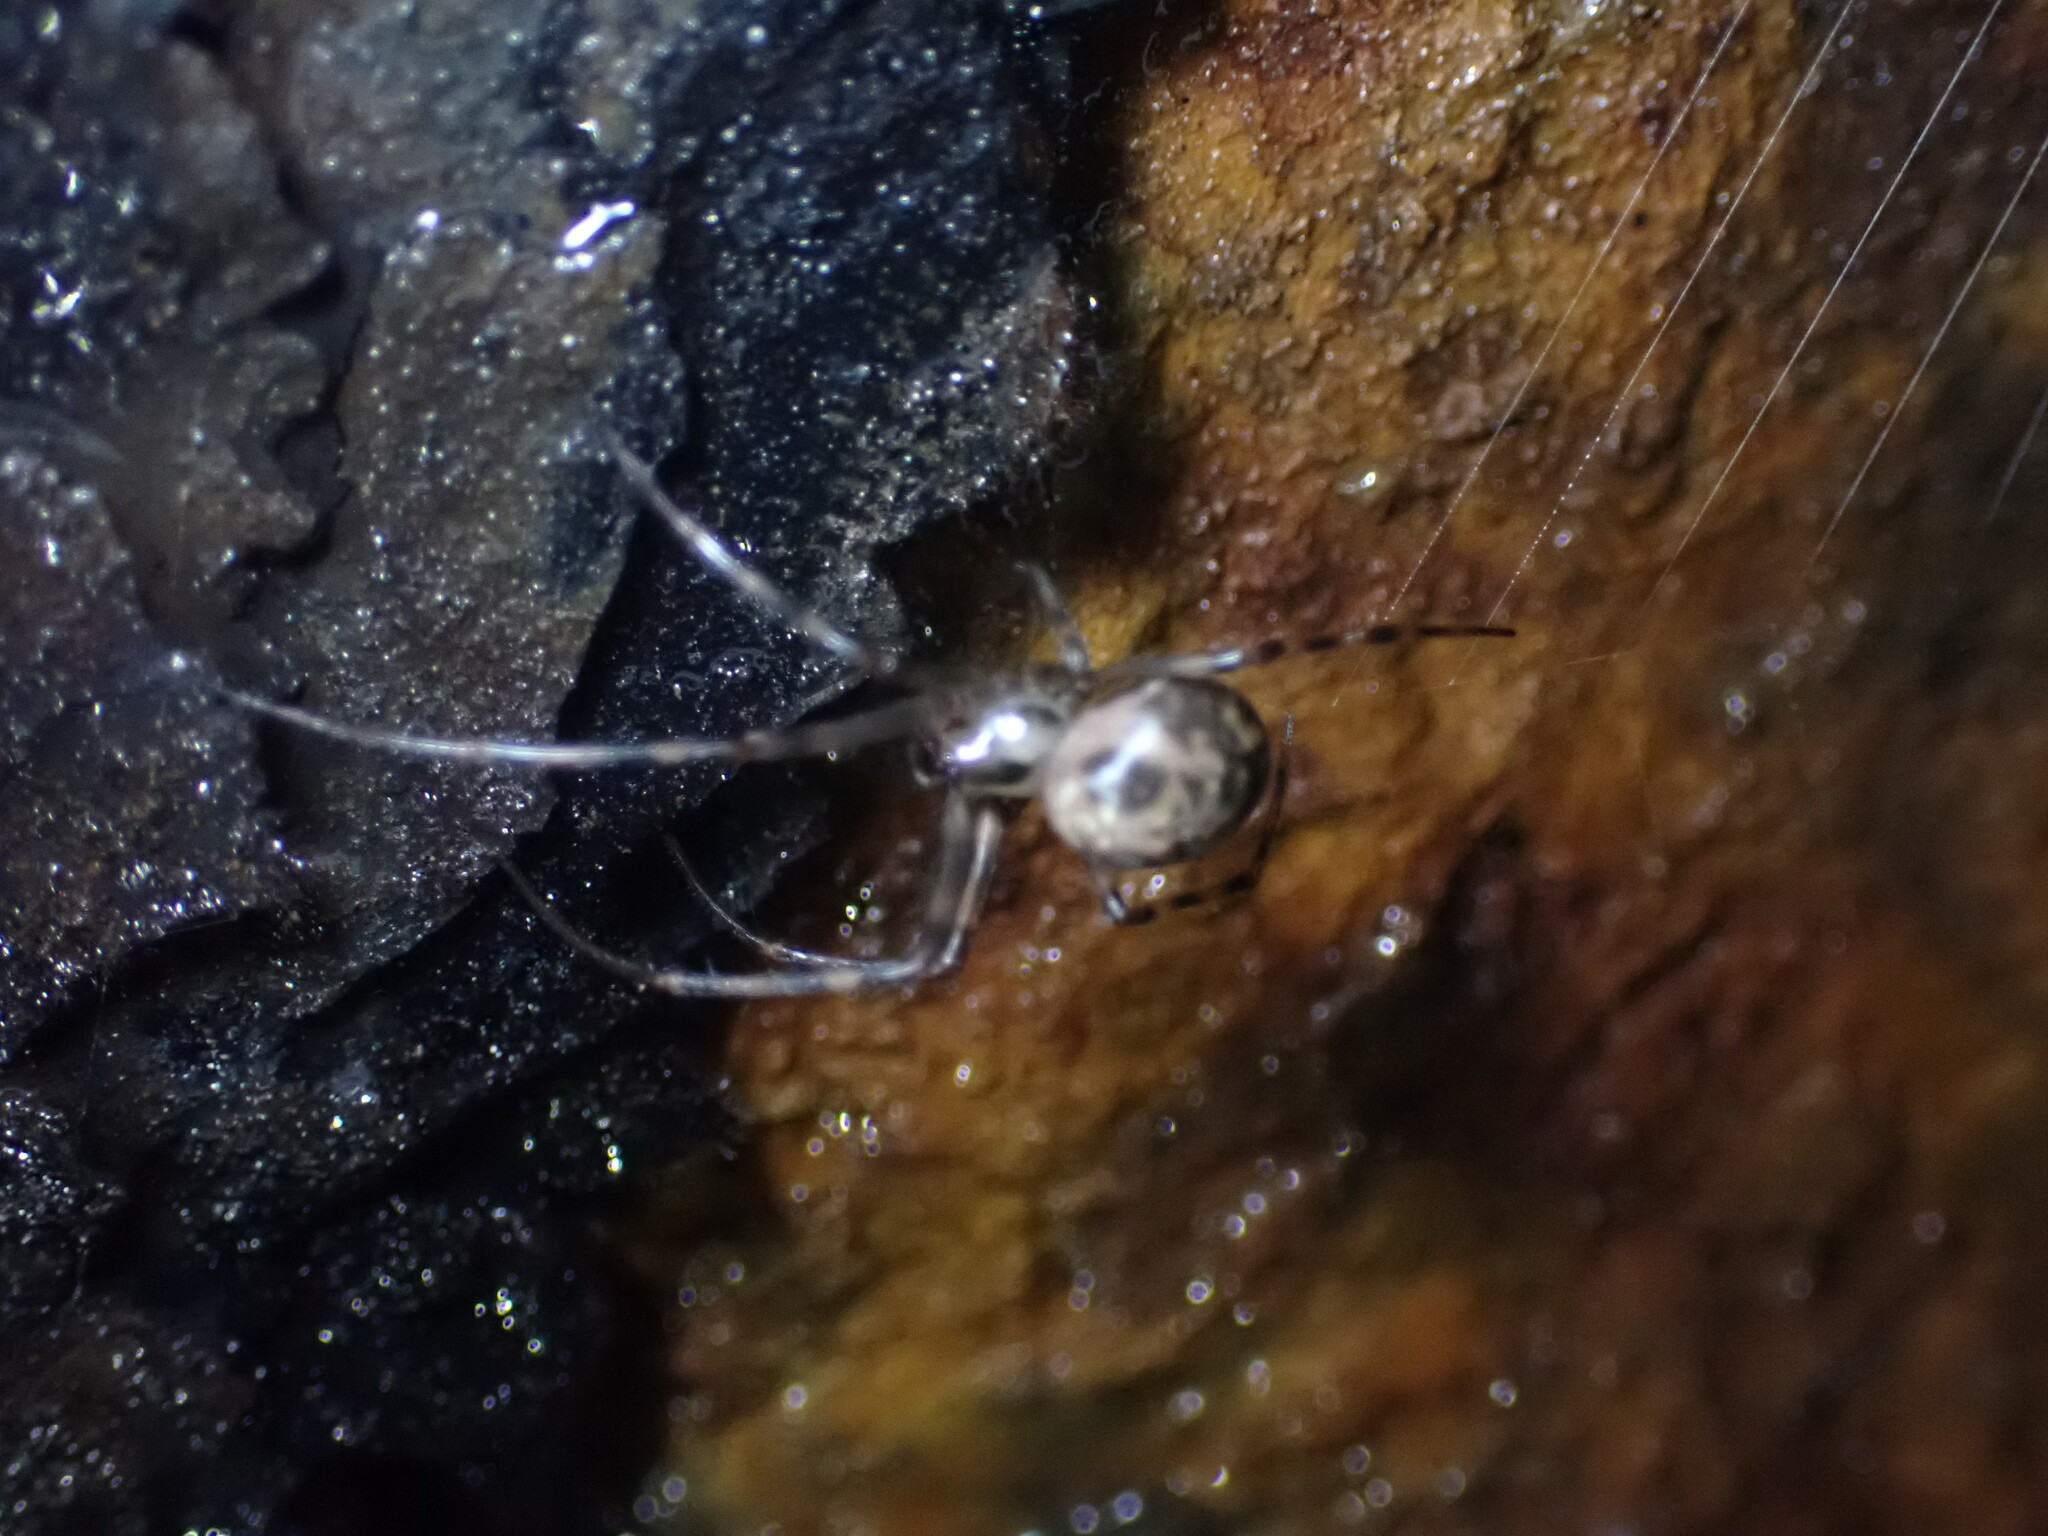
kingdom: Animalia
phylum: Arthropoda
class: Arachnida
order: Araneae
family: Tetragnathidae
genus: Meta
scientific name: Meta ovalis
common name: Eastern cave long-jawed spider
